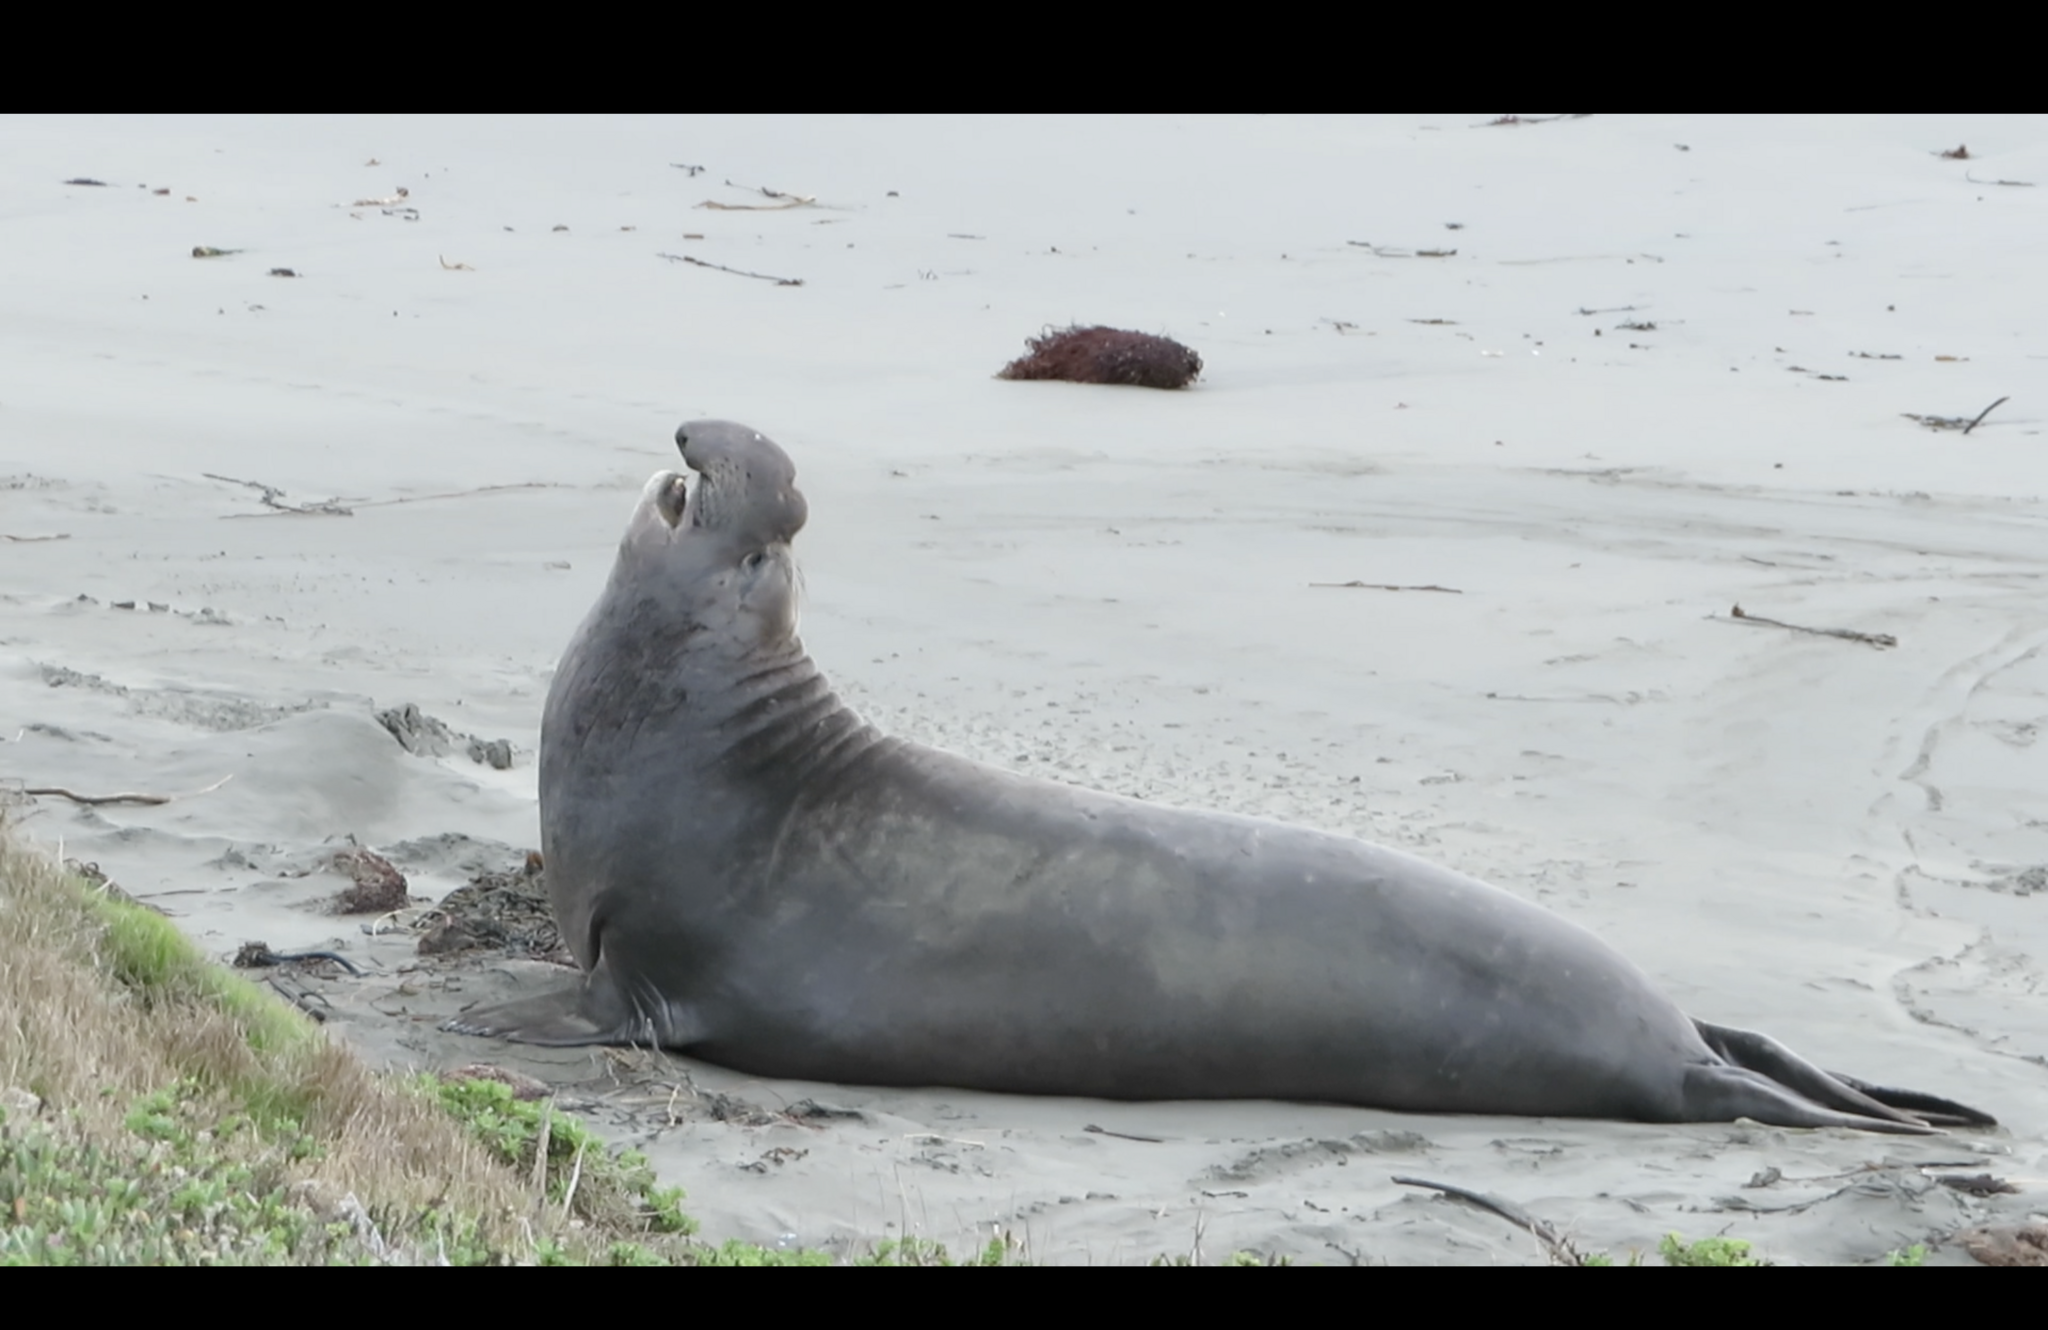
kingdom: Animalia
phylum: Chordata
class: Mammalia
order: Carnivora
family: Phocidae
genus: Mirounga
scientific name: Mirounga angustirostris
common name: Northern elephant seal
